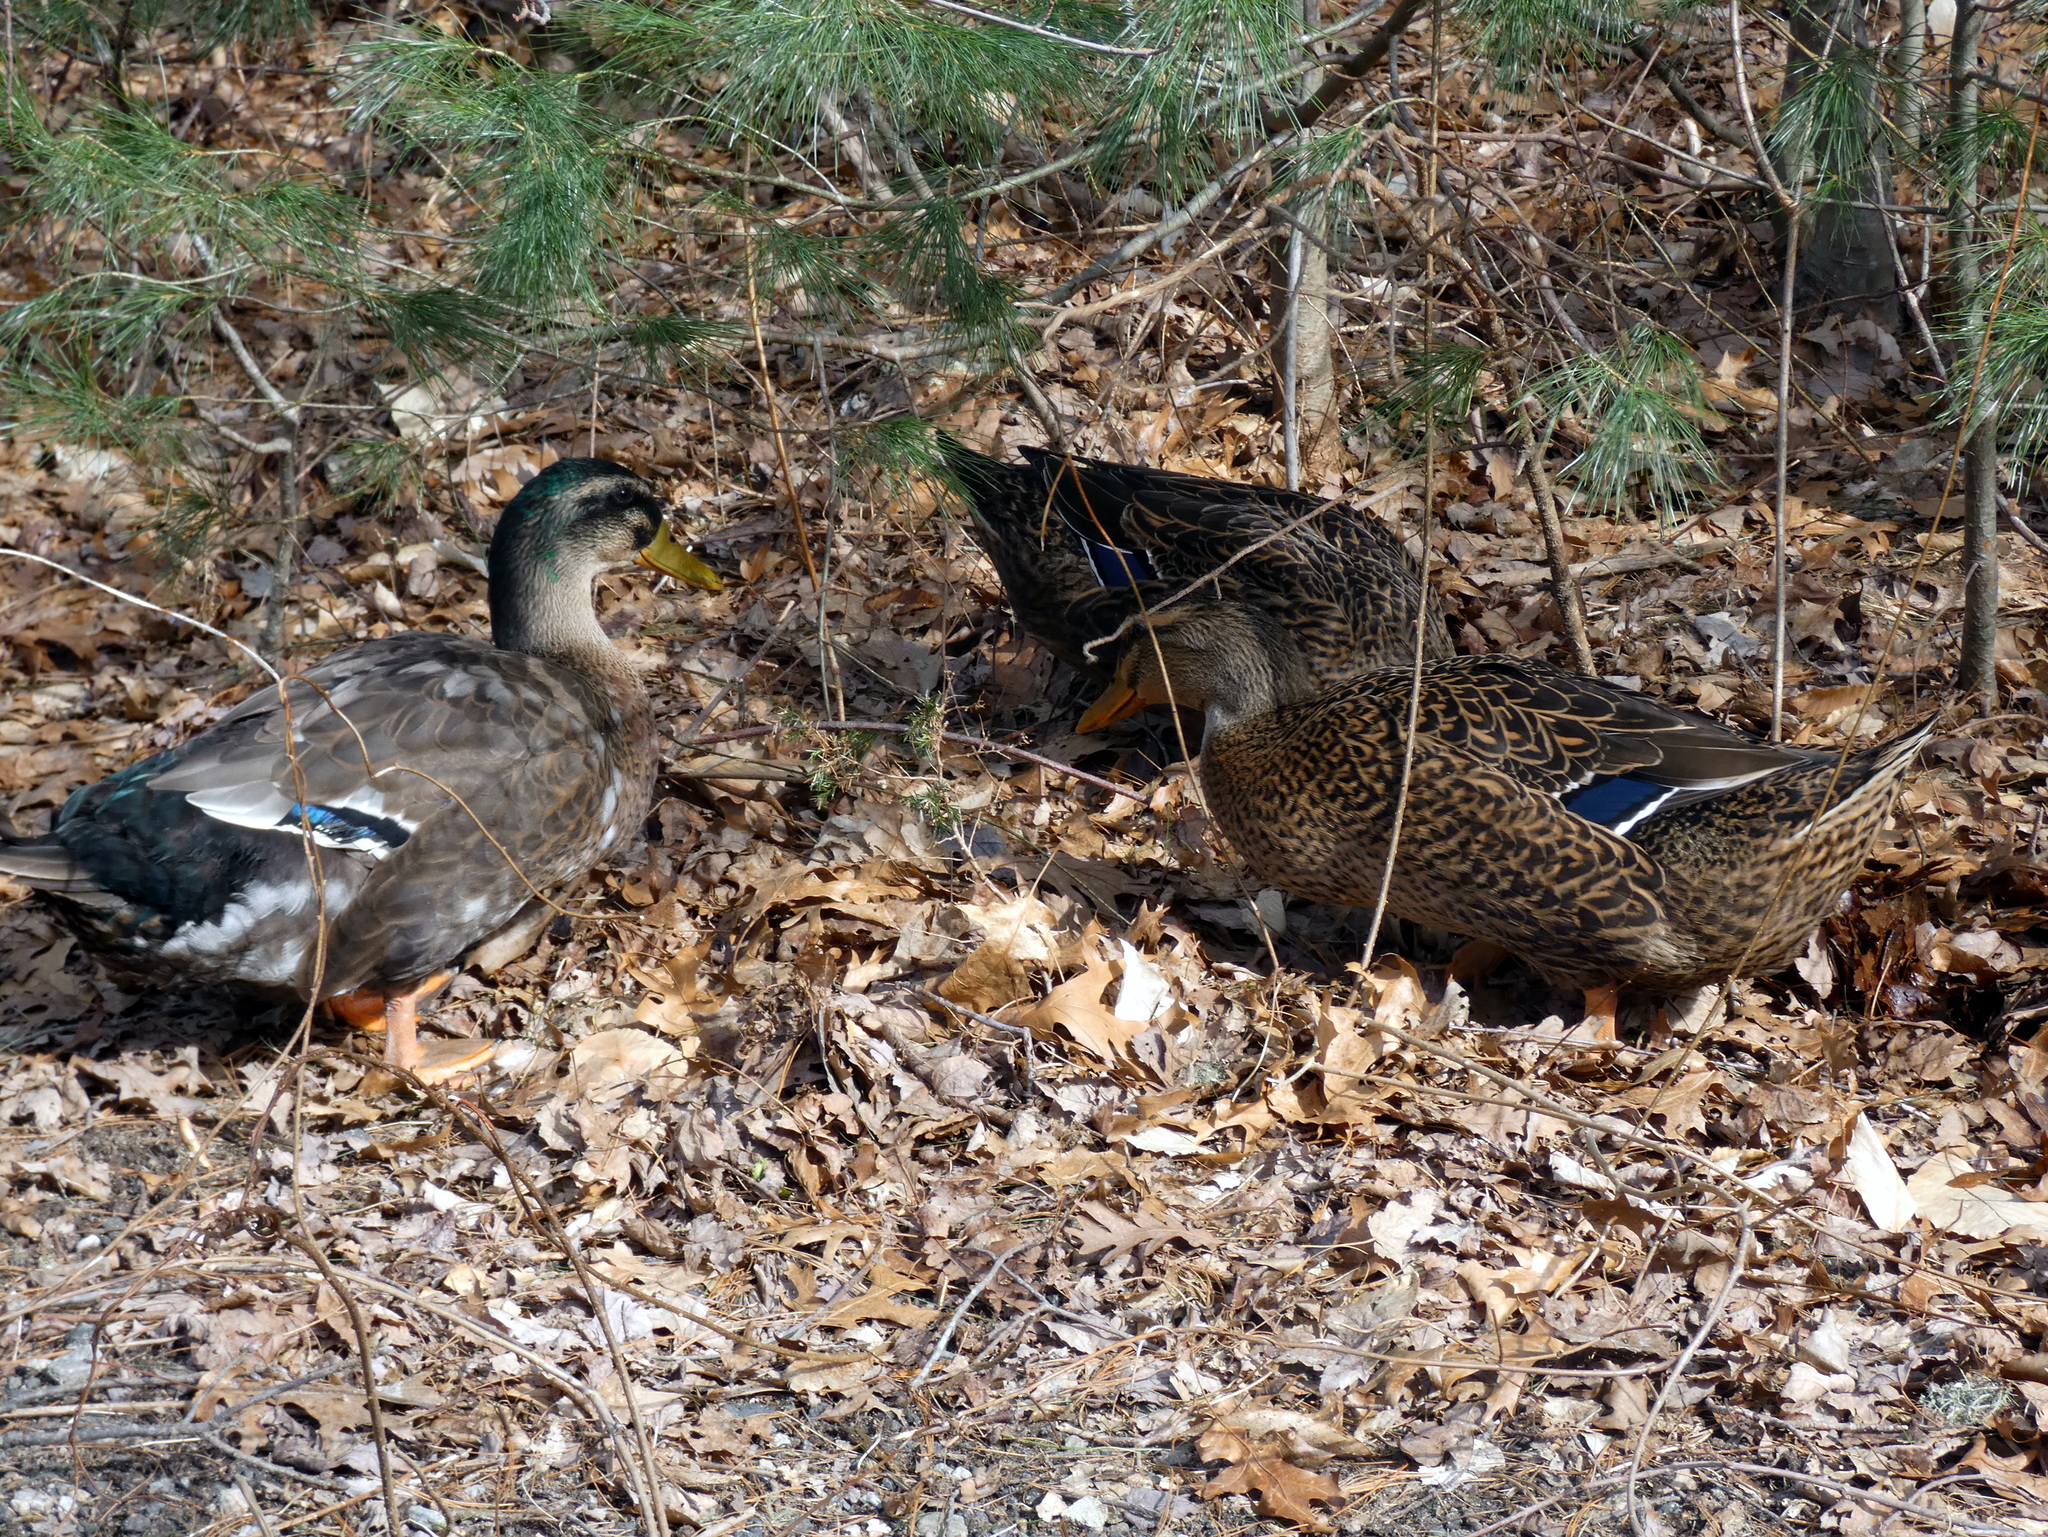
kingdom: Animalia
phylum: Chordata
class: Aves
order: Anseriformes
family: Anatidae
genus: Anas
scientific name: Anas platyrhynchos
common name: Mallard
